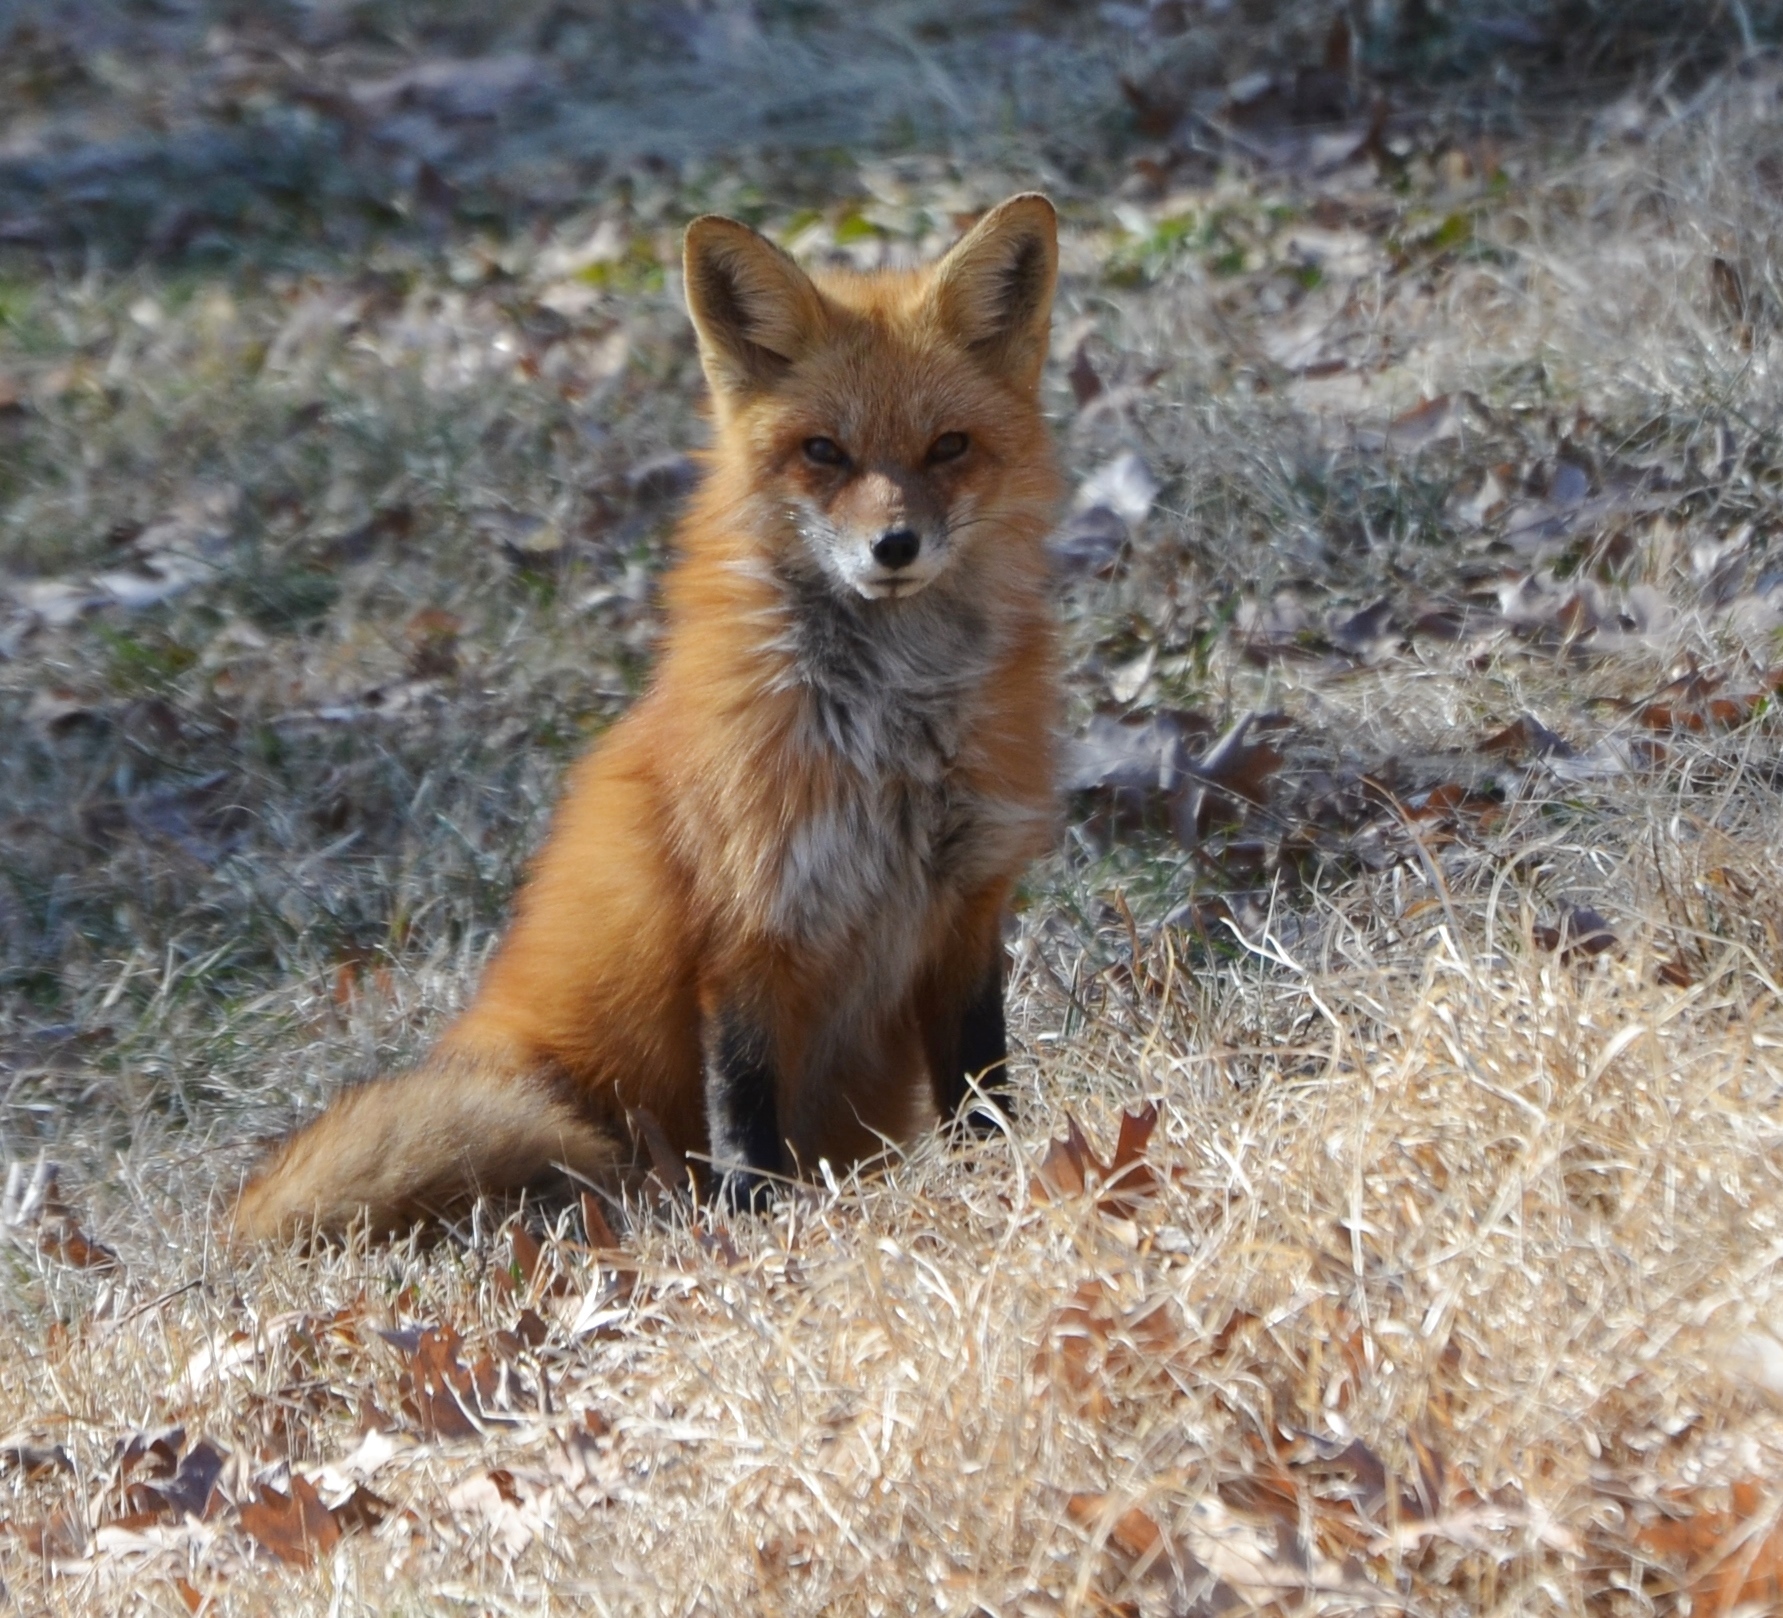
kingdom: Animalia
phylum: Chordata
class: Mammalia
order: Carnivora
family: Canidae
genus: Vulpes
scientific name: Vulpes vulpes
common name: Red fox
